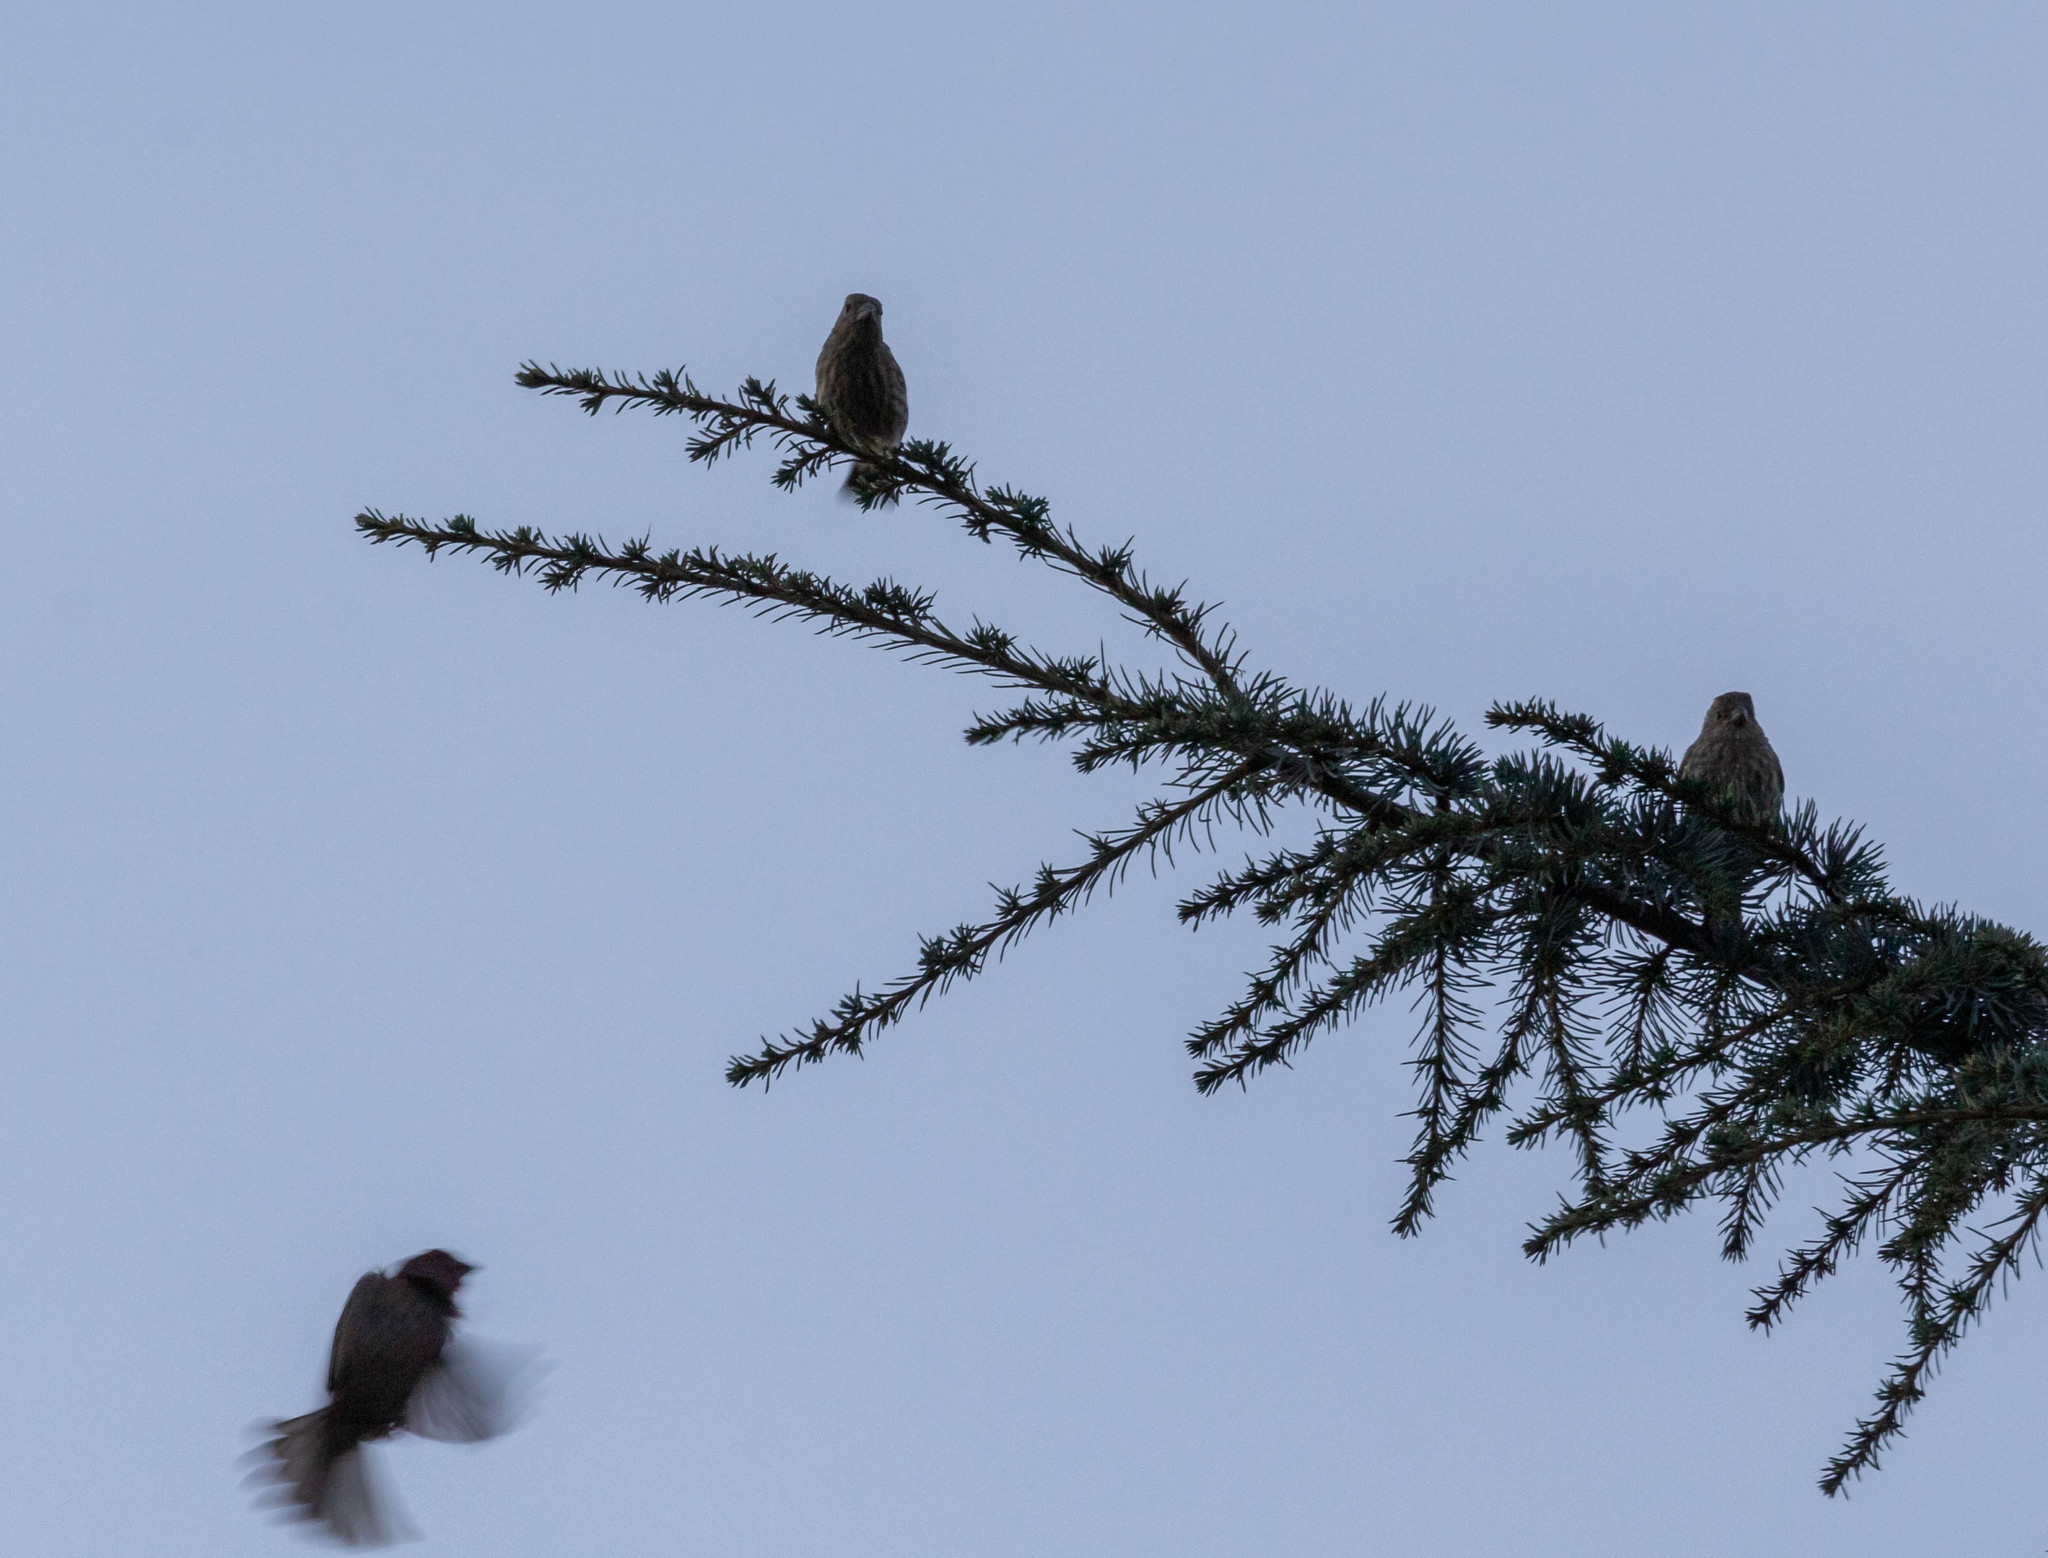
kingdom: Animalia
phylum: Chordata
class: Aves
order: Passeriformes
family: Fringillidae
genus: Haemorhous
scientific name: Haemorhous mexicanus
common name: House finch
